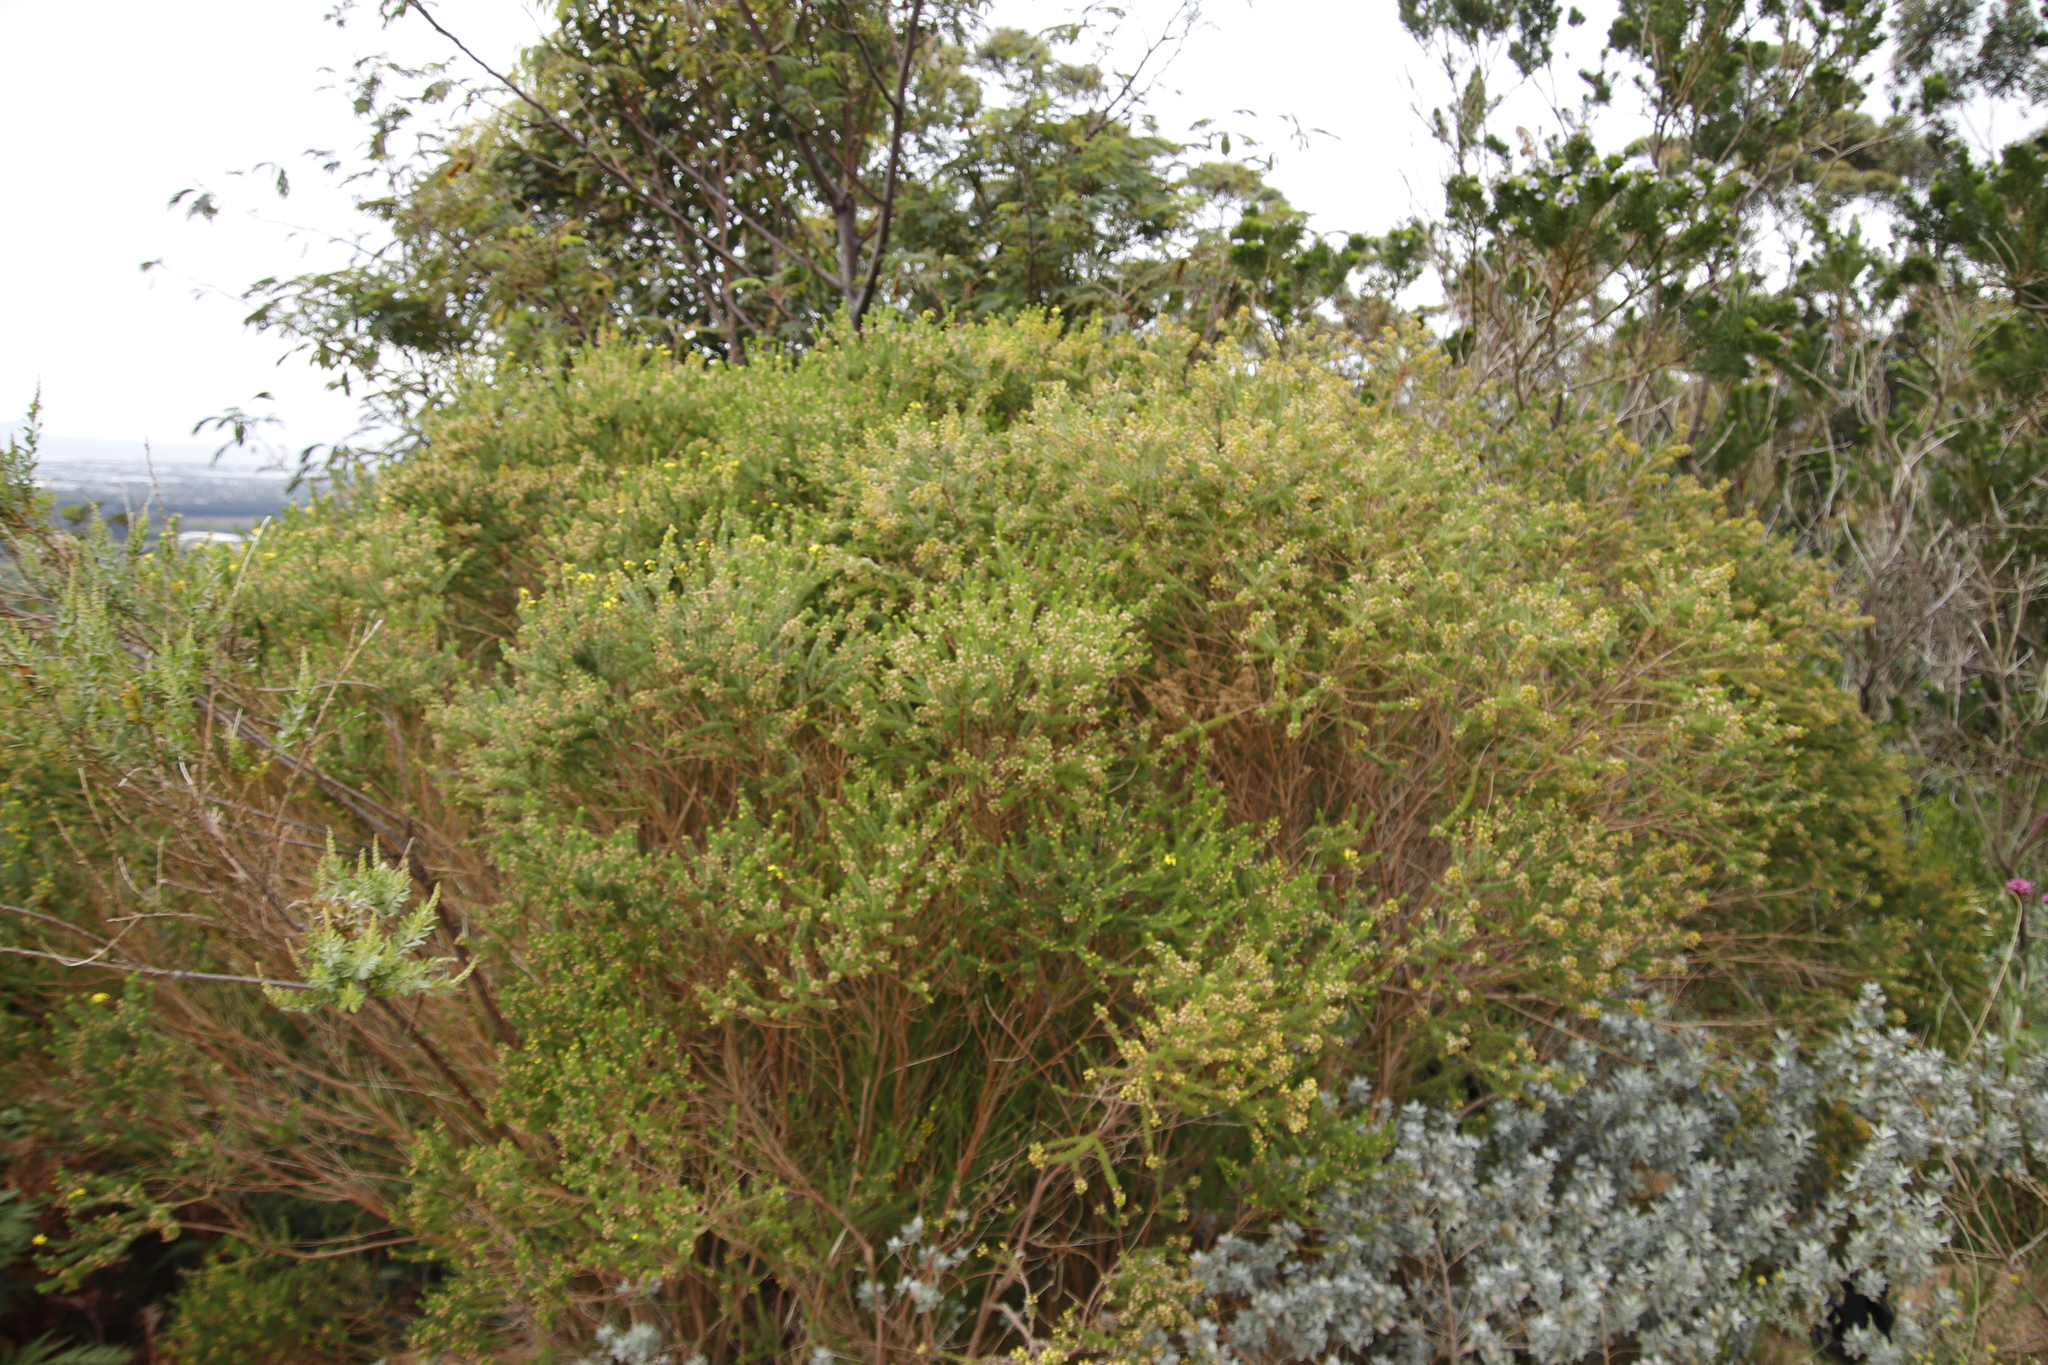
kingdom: Plantae
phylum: Tracheophyta
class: Magnoliopsida
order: Asterales
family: Asteraceae
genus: Euryops
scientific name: Euryops virgineus
